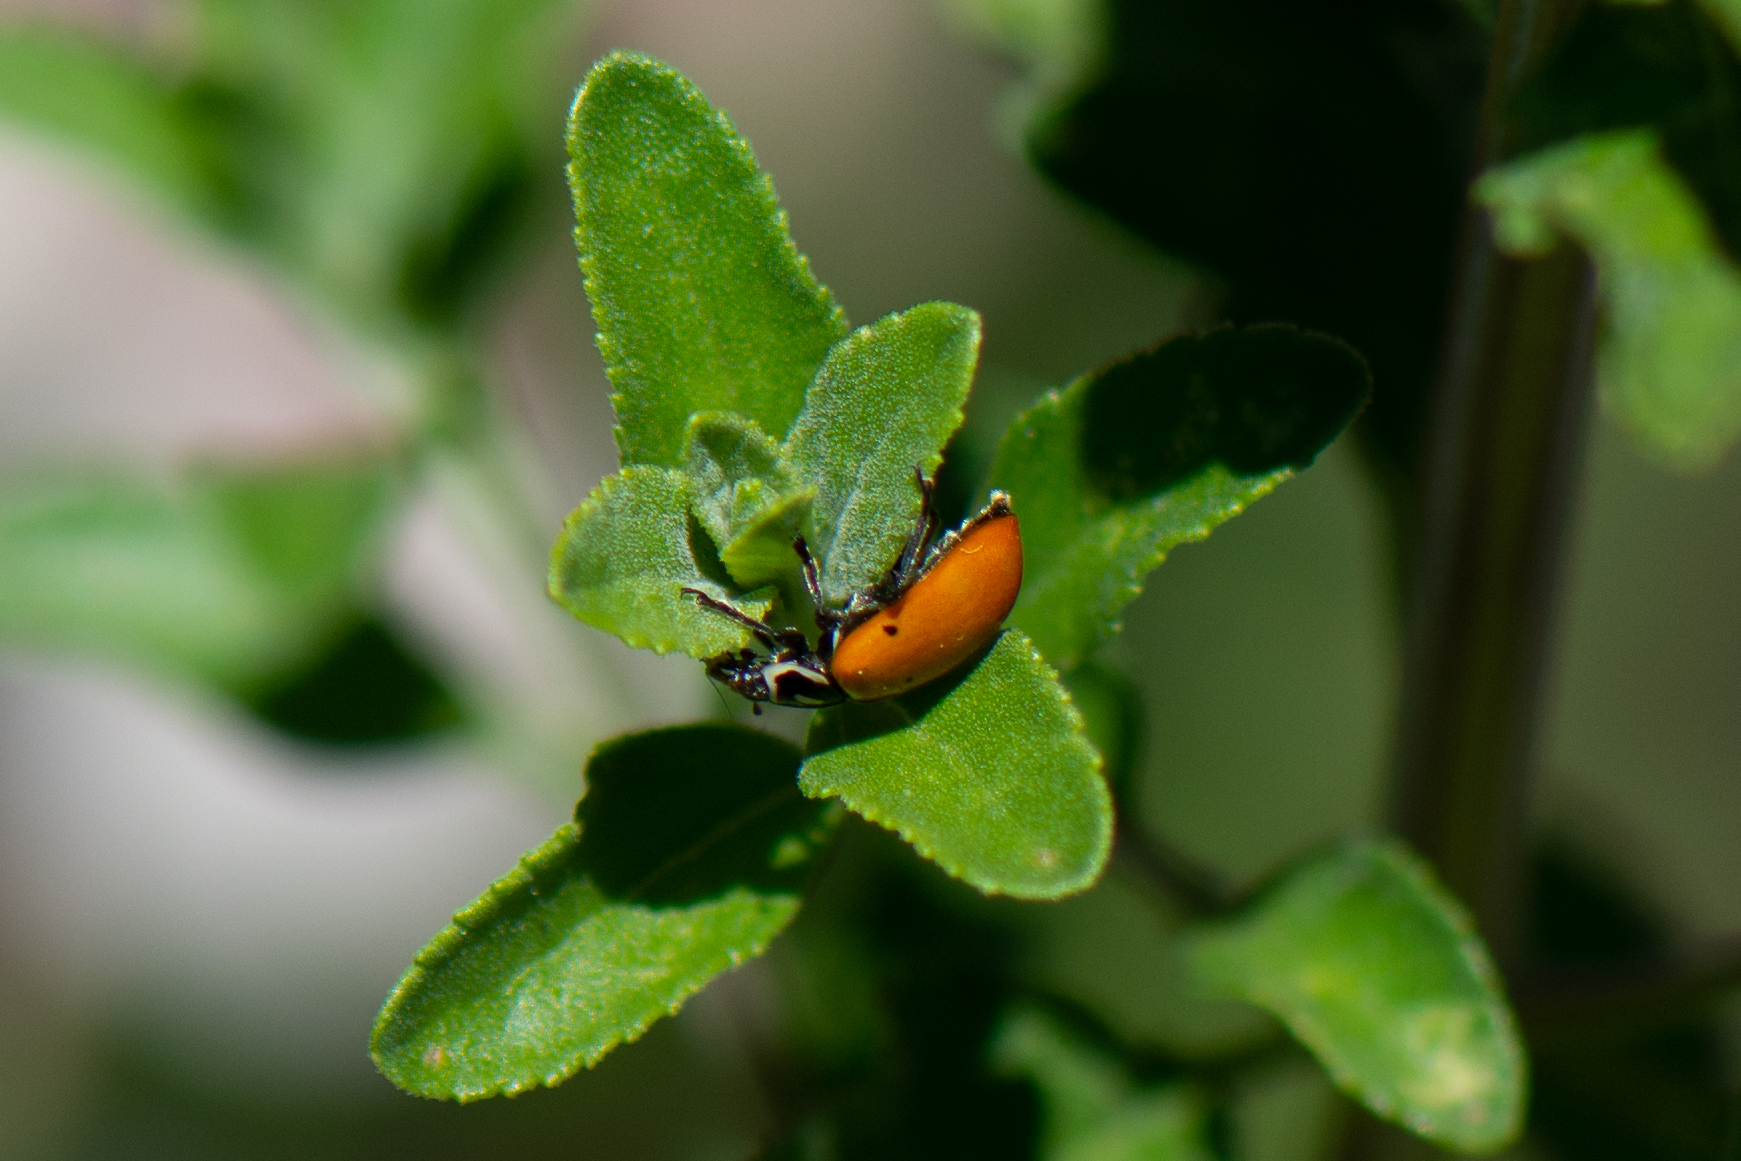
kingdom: Animalia
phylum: Arthropoda
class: Insecta
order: Coleoptera
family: Coccinellidae
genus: Hippodamia
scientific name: Hippodamia convergens
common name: Convergent lady beetle
